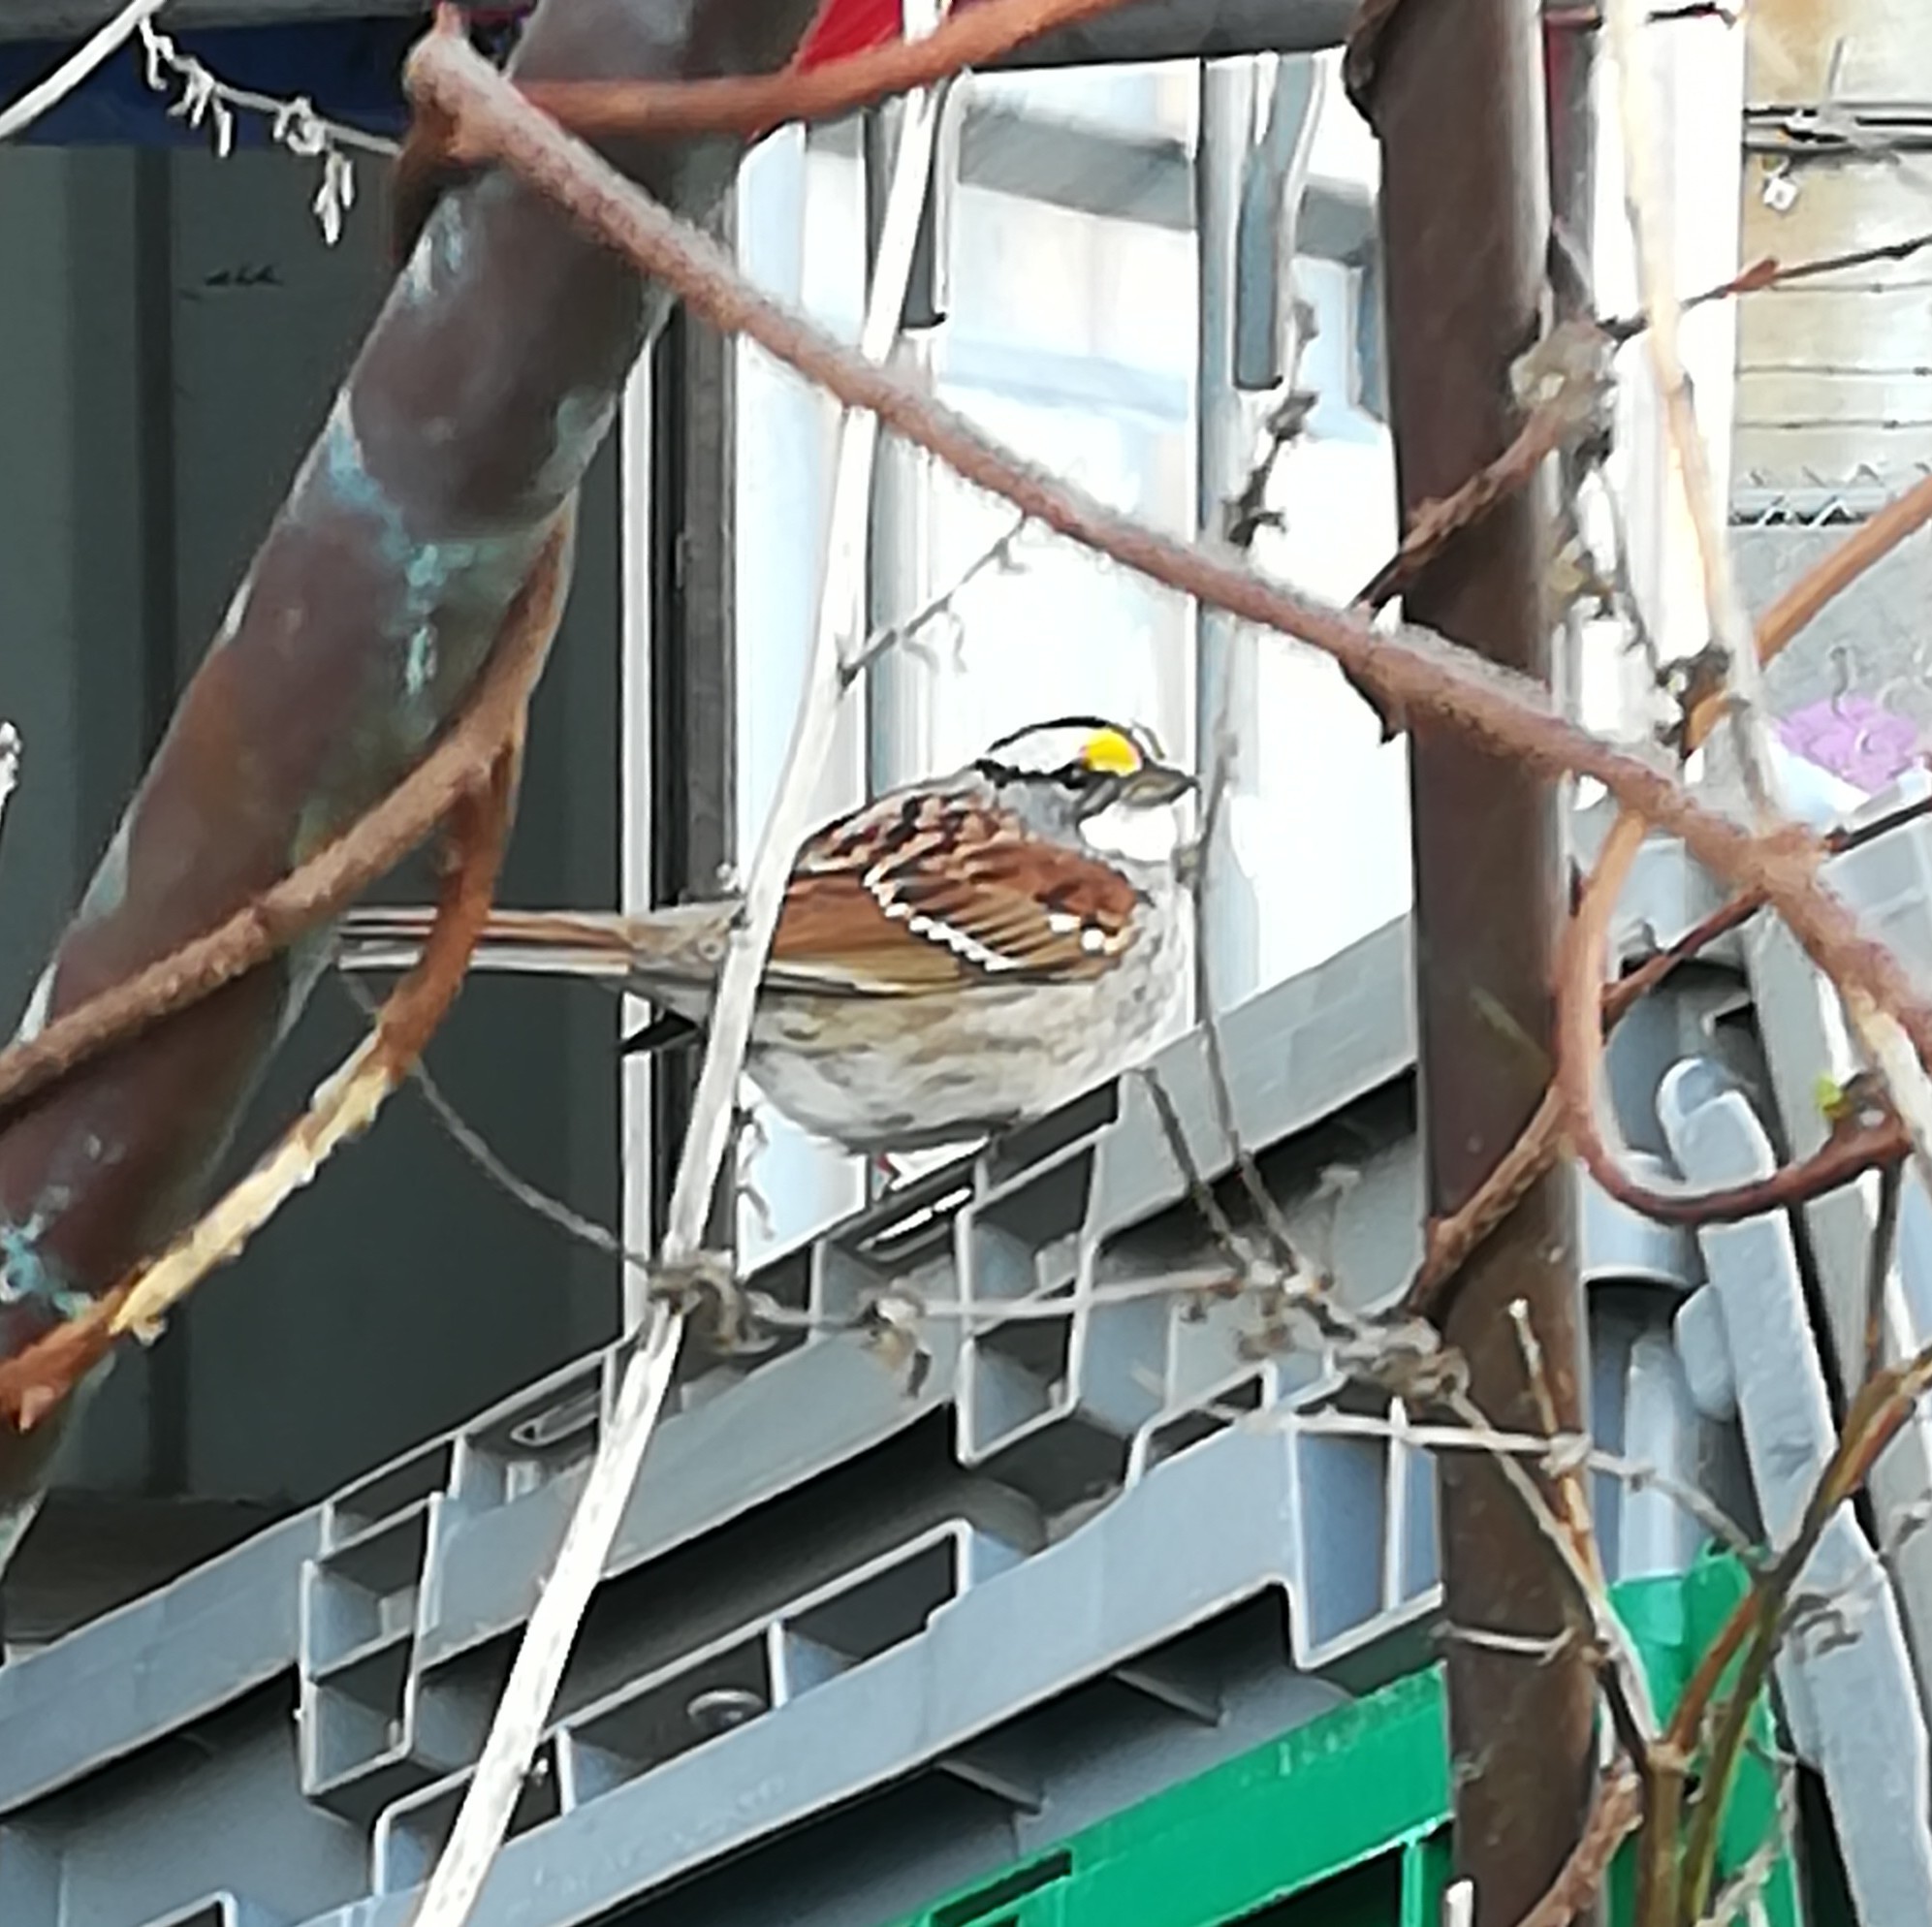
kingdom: Animalia
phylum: Chordata
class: Aves
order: Passeriformes
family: Passerellidae
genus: Zonotrichia
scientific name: Zonotrichia albicollis
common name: White-throated sparrow
